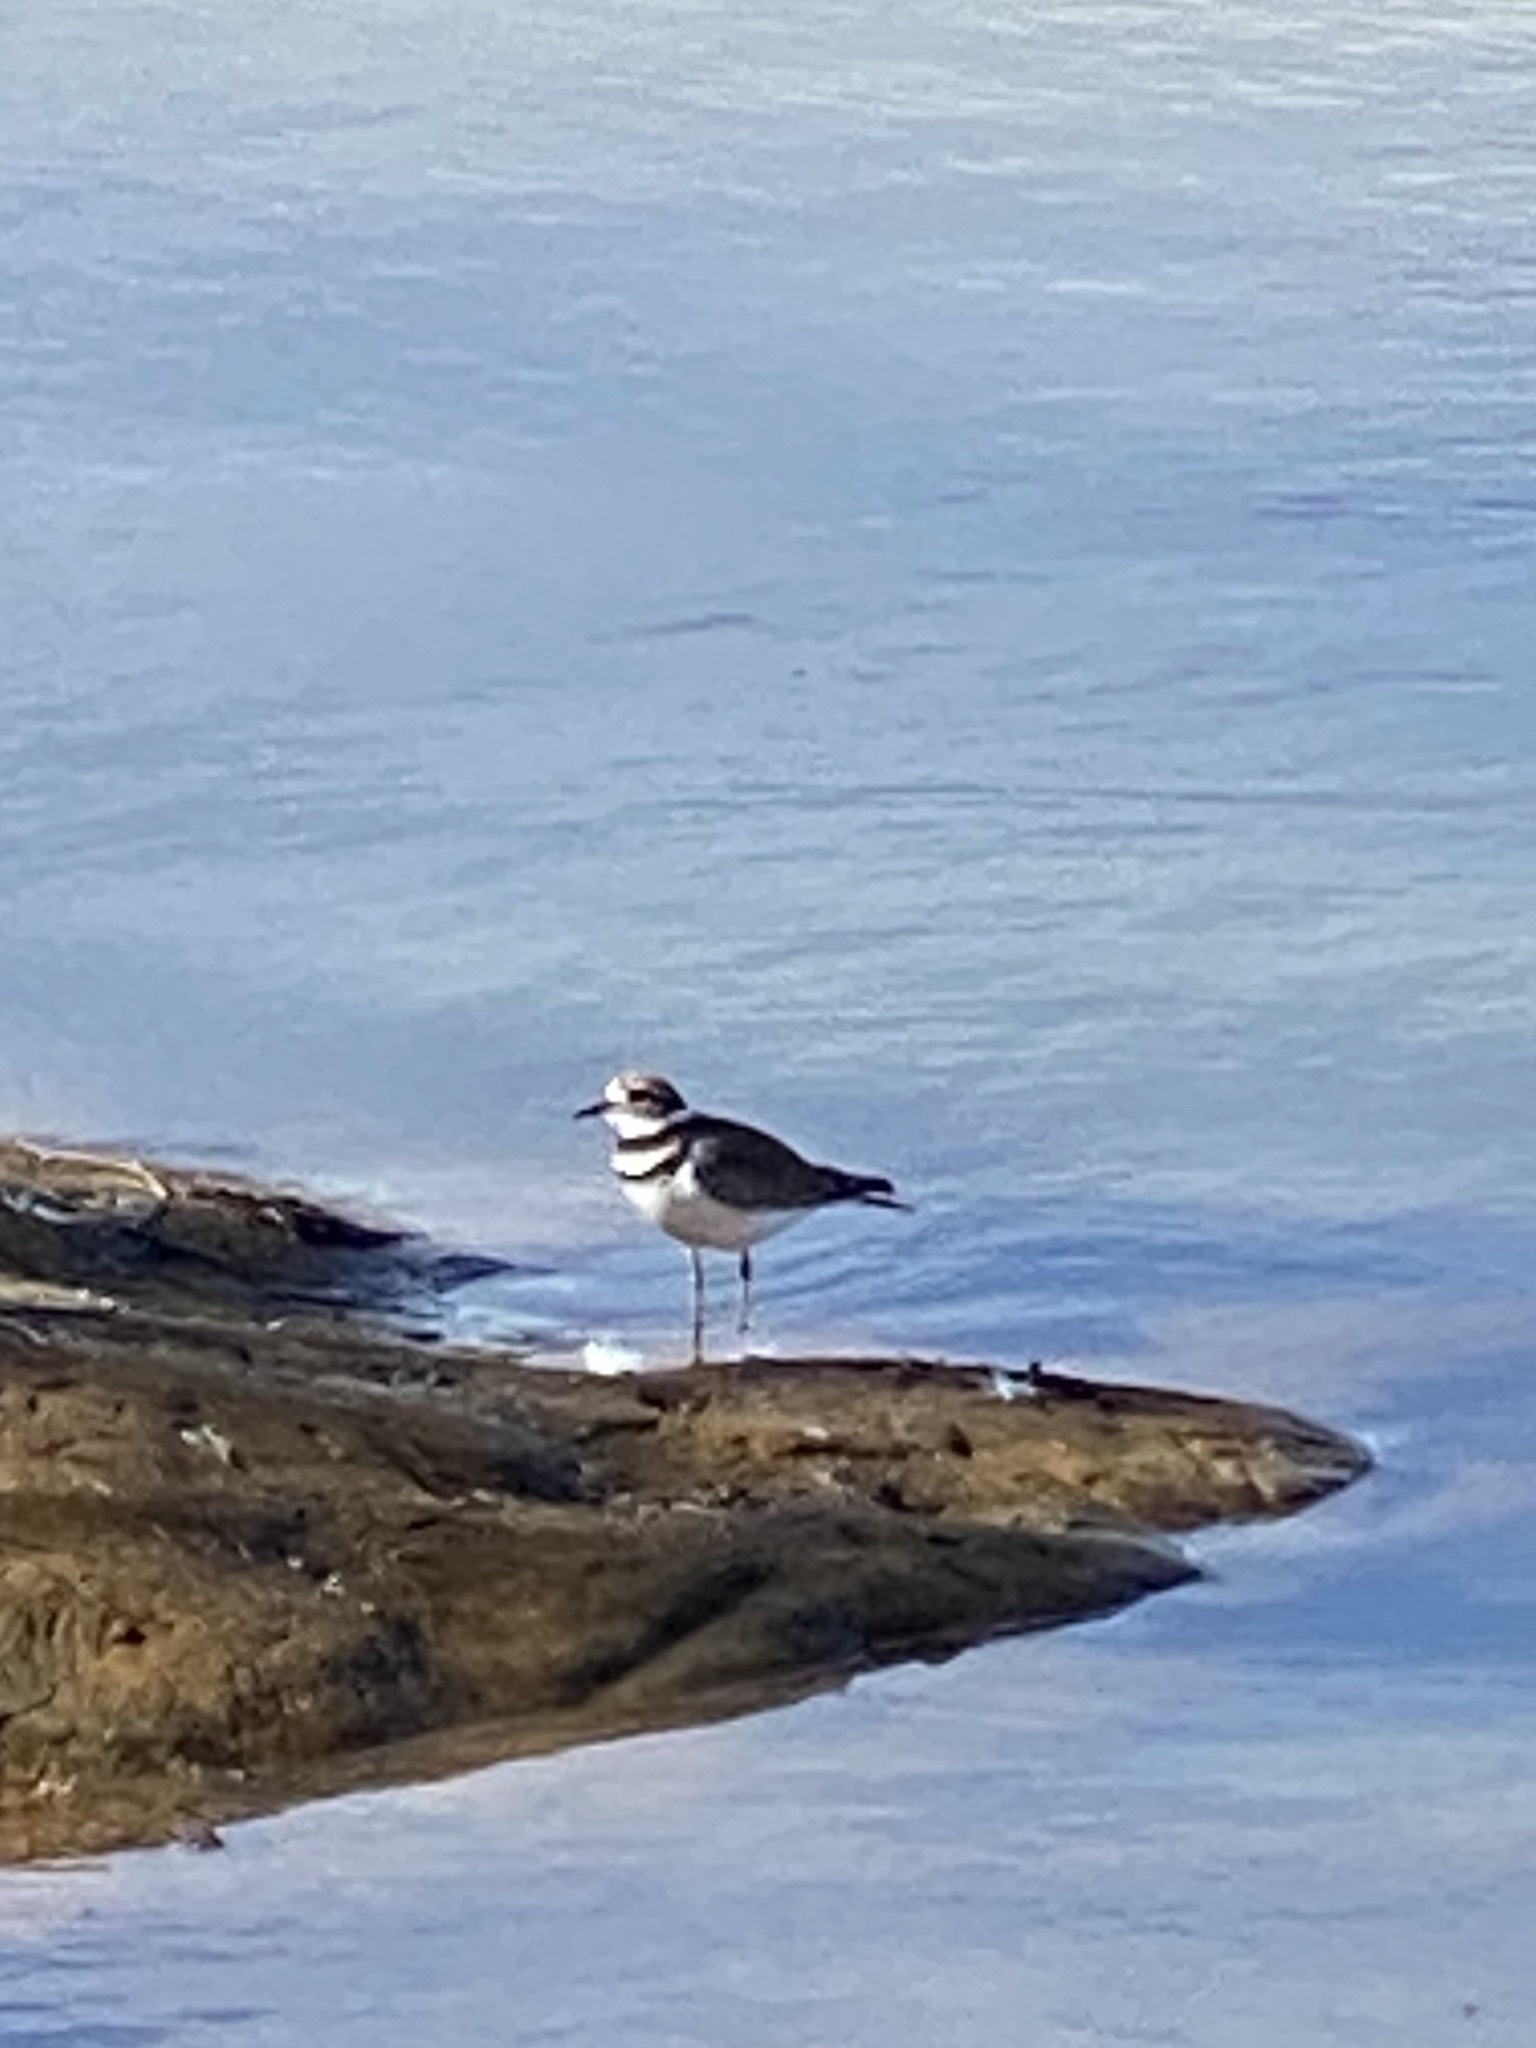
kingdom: Animalia
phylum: Chordata
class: Aves
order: Charadriiformes
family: Charadriidae
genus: Charadrius
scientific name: Charadrius vociferus
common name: Killdeer
